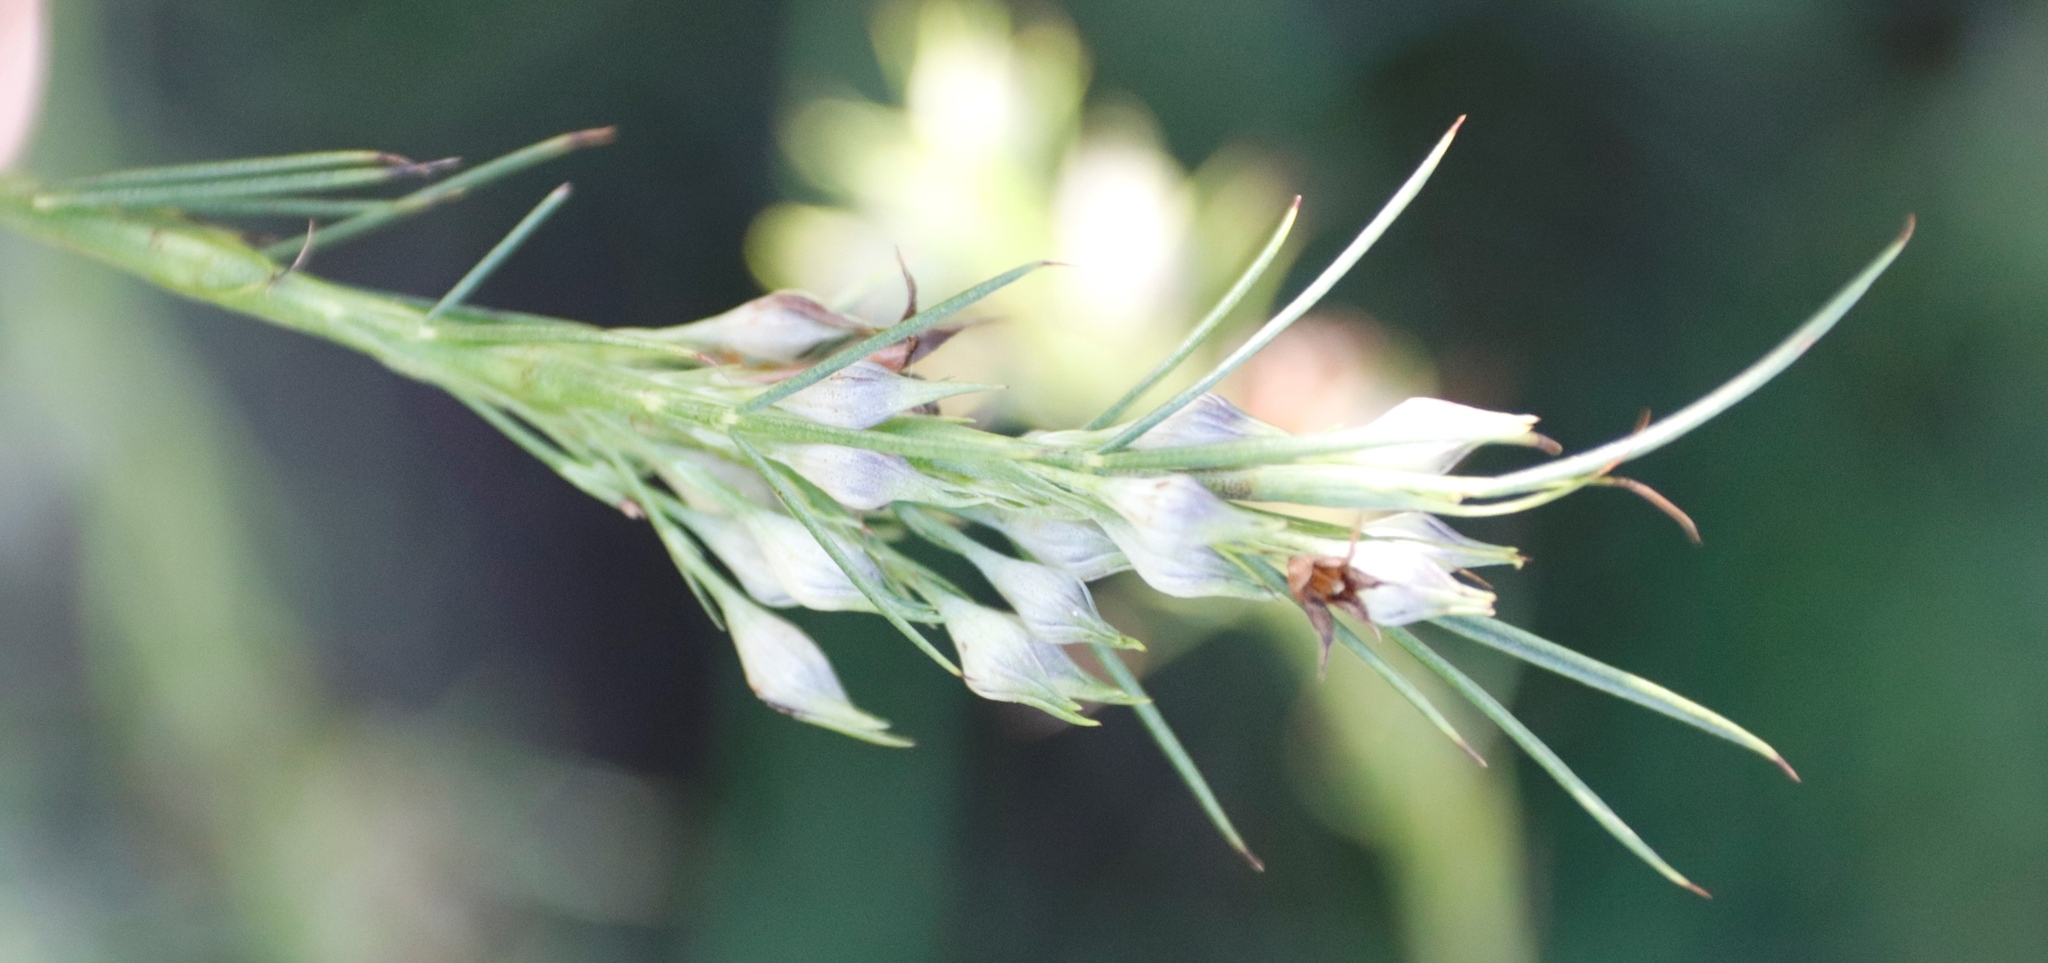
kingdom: Plantae
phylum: Tracheophyta
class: Magnoliopsida
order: Fabales
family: Fabaceae
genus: Psoralea
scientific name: Psoralea fascicularis
